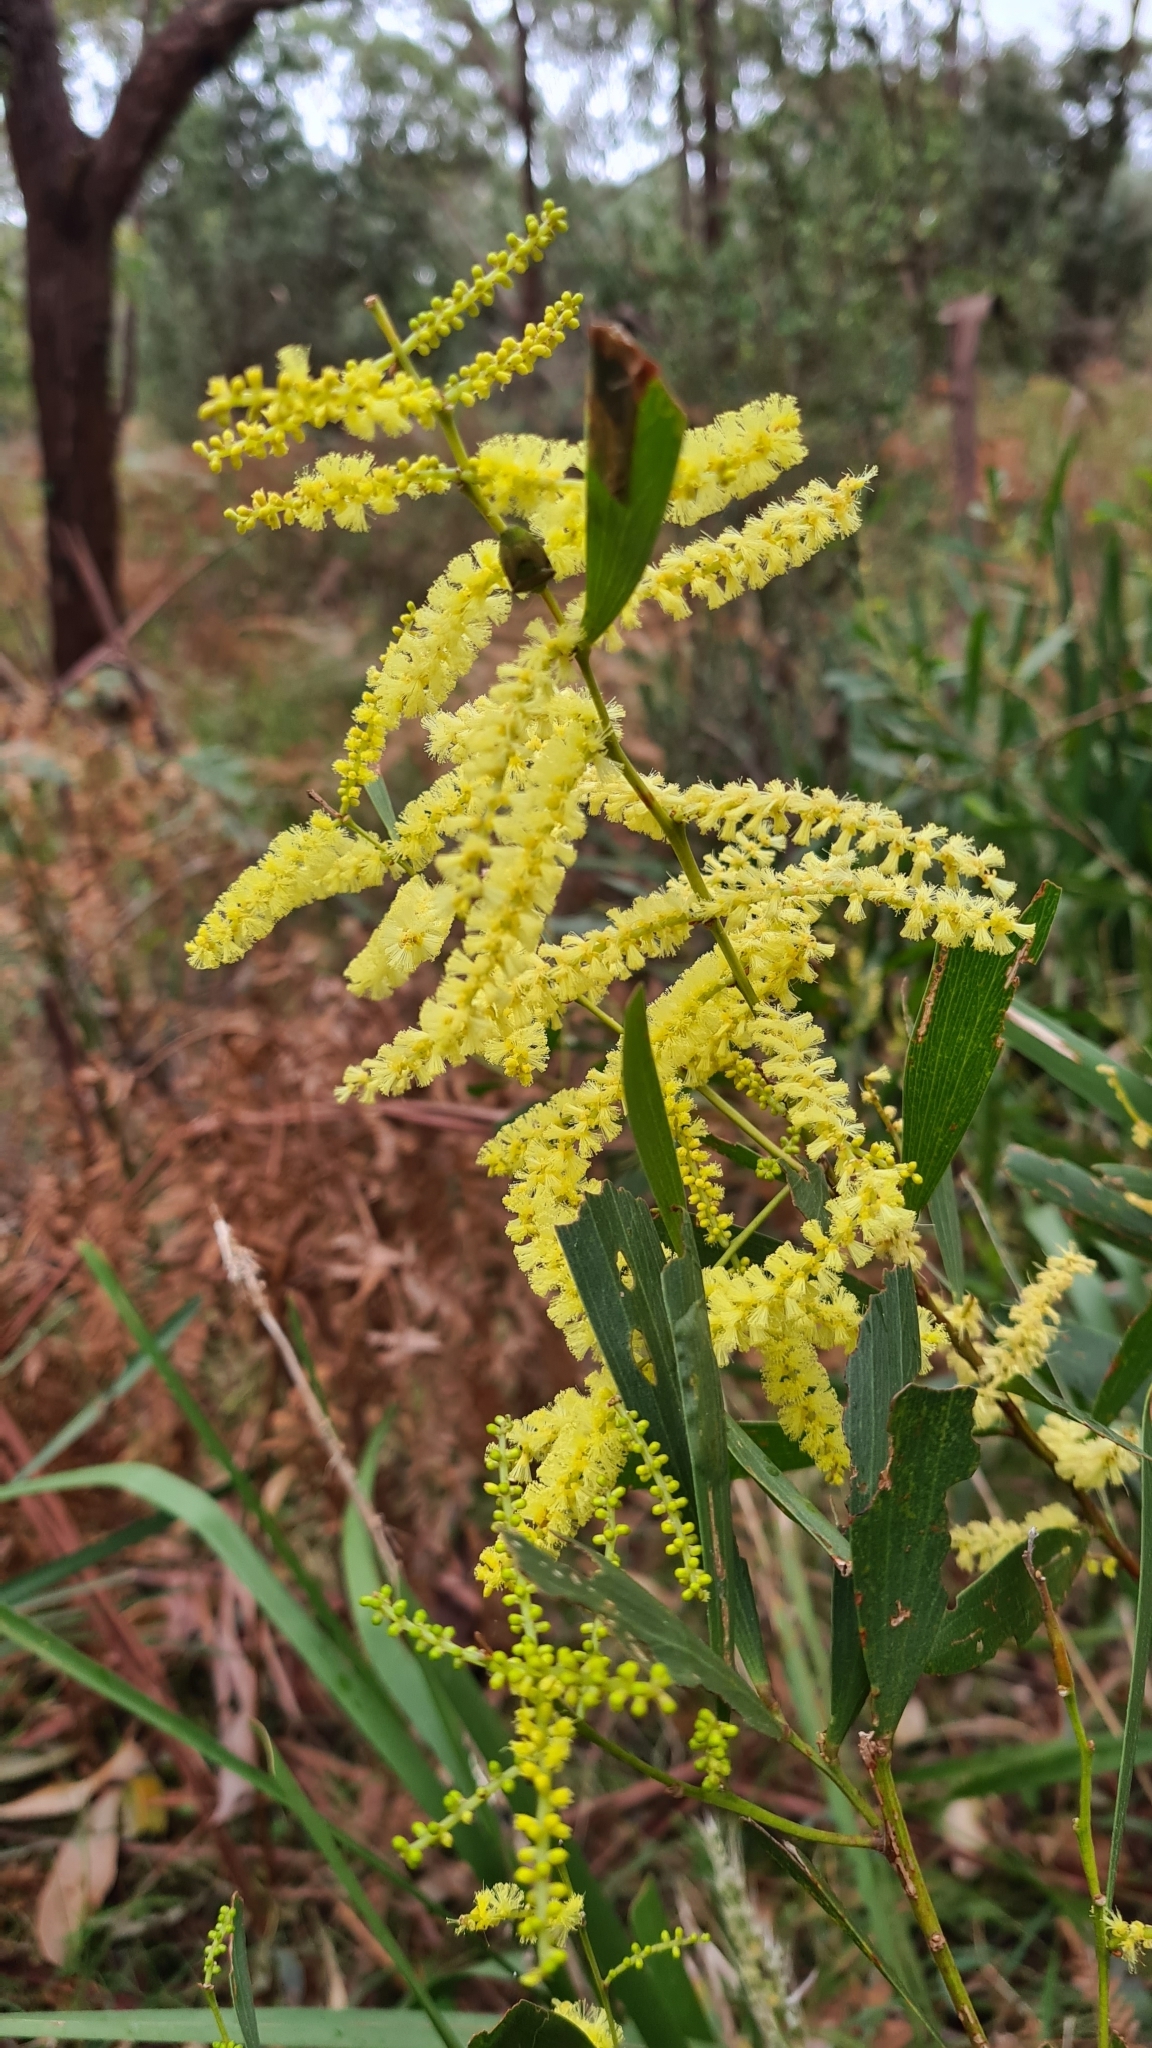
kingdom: Plantae
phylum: Tracheophyta
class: Magnoliopsida
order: Fabales
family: Fabaceae
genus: Acacia
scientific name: Acacia longifolia
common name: Sydney golden wattle
